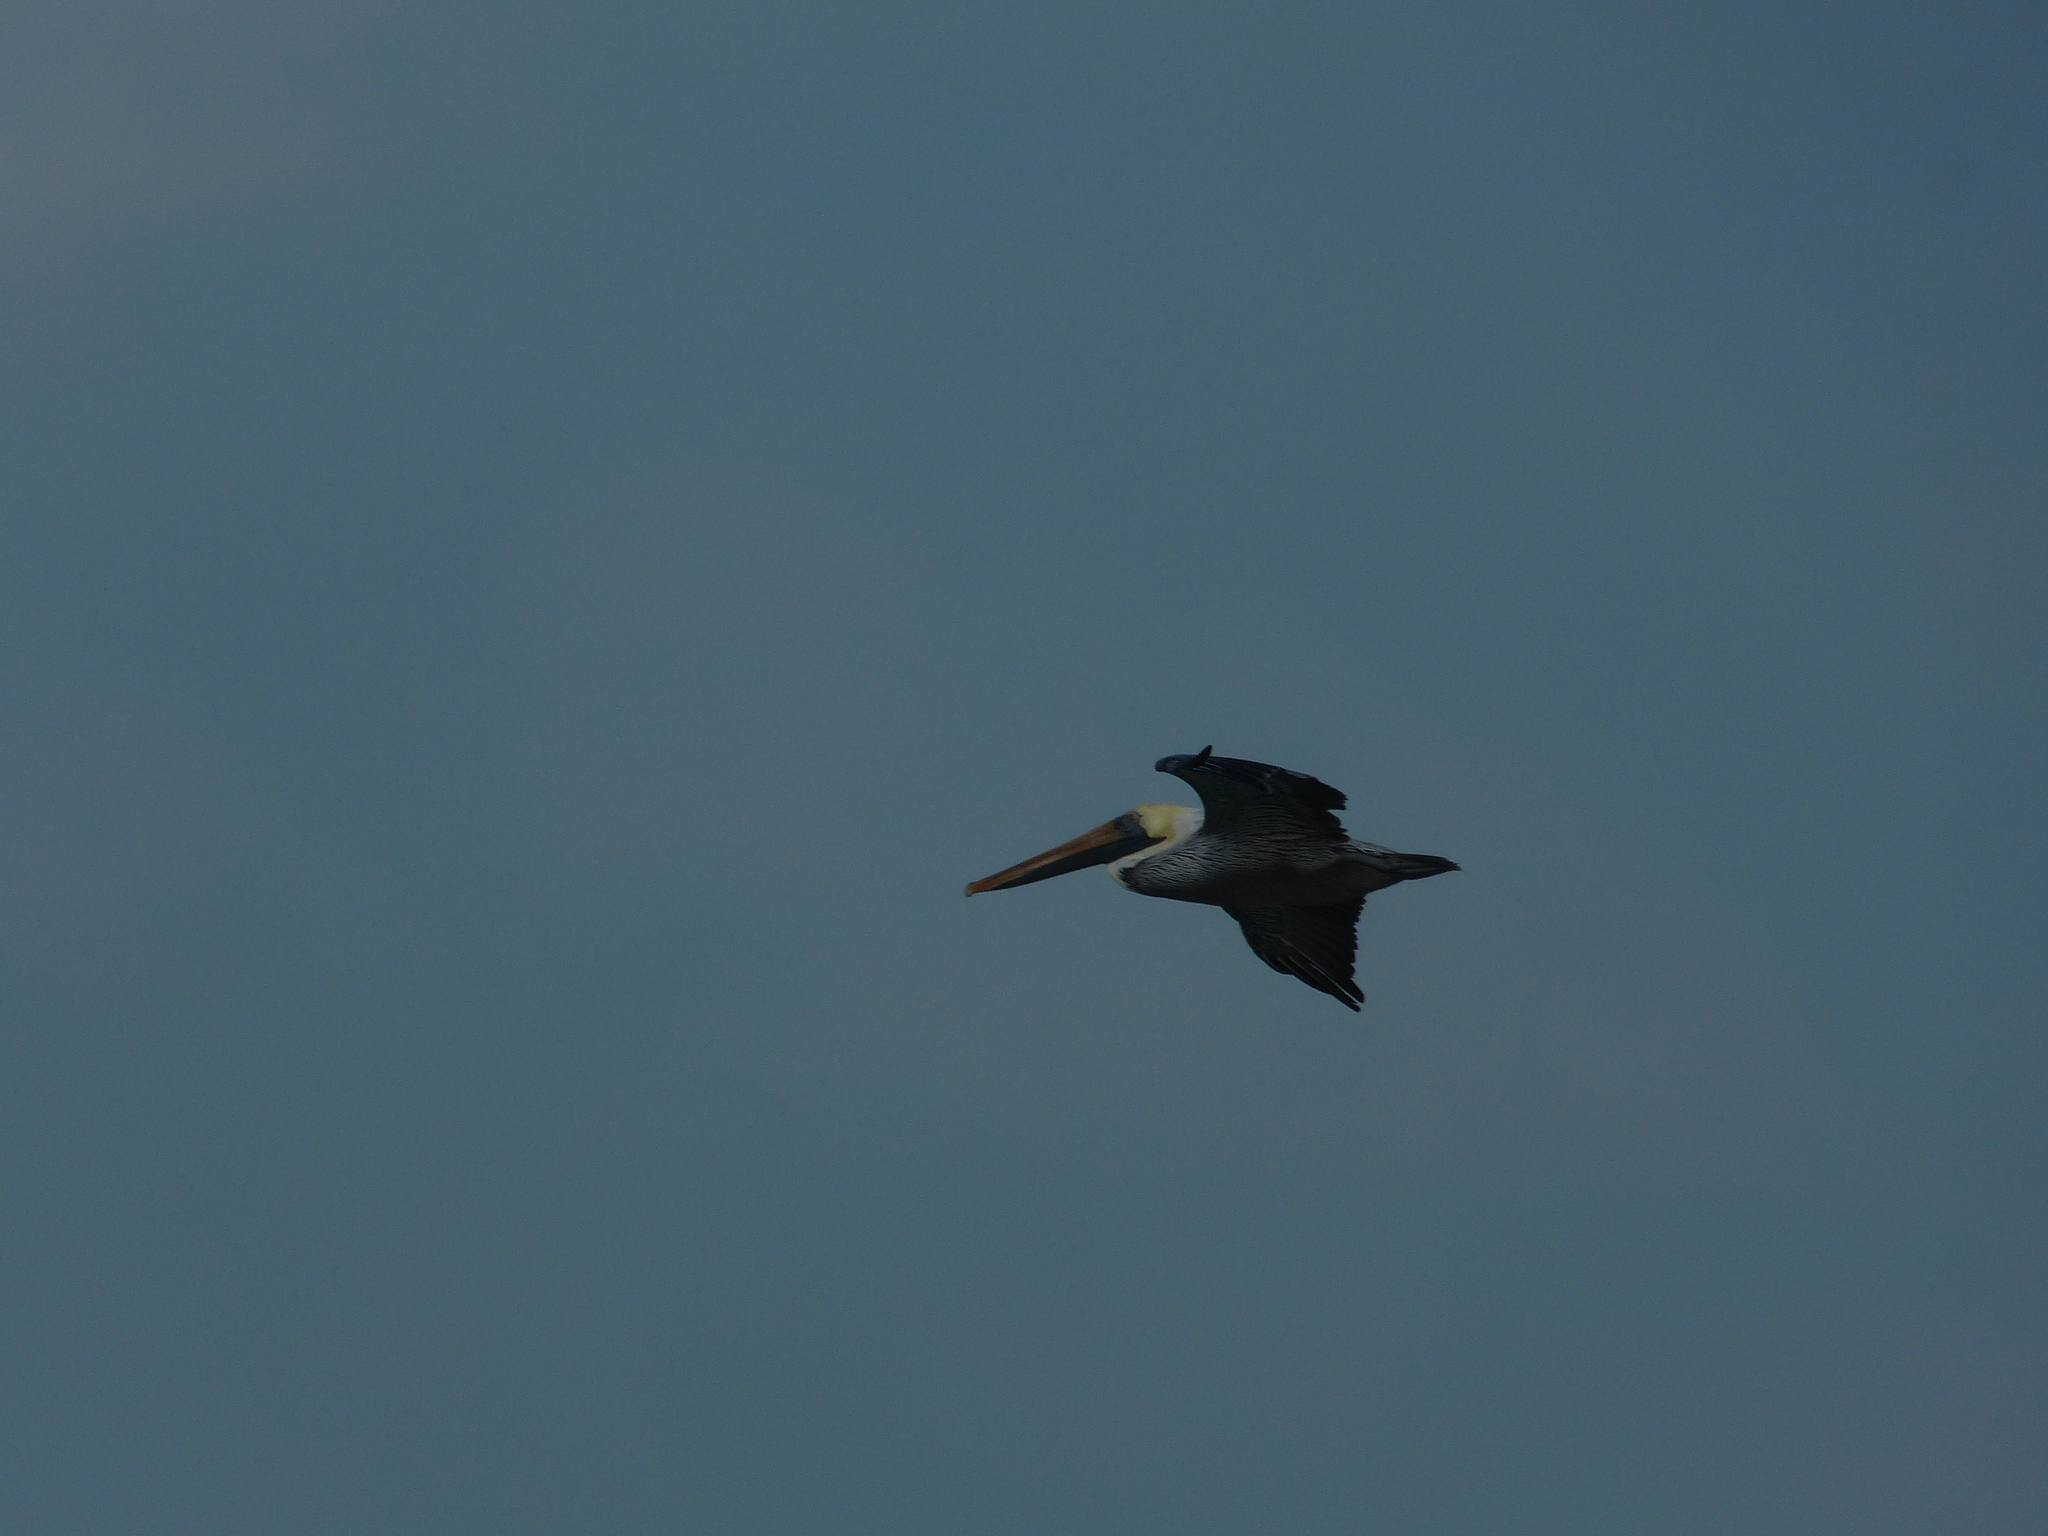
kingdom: Animalia
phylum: Chordata
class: Aves
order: Pelecaniformes
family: Pelecanidae
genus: Pelecanus
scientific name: Pelecanus occidentalis
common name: Brown pelican
